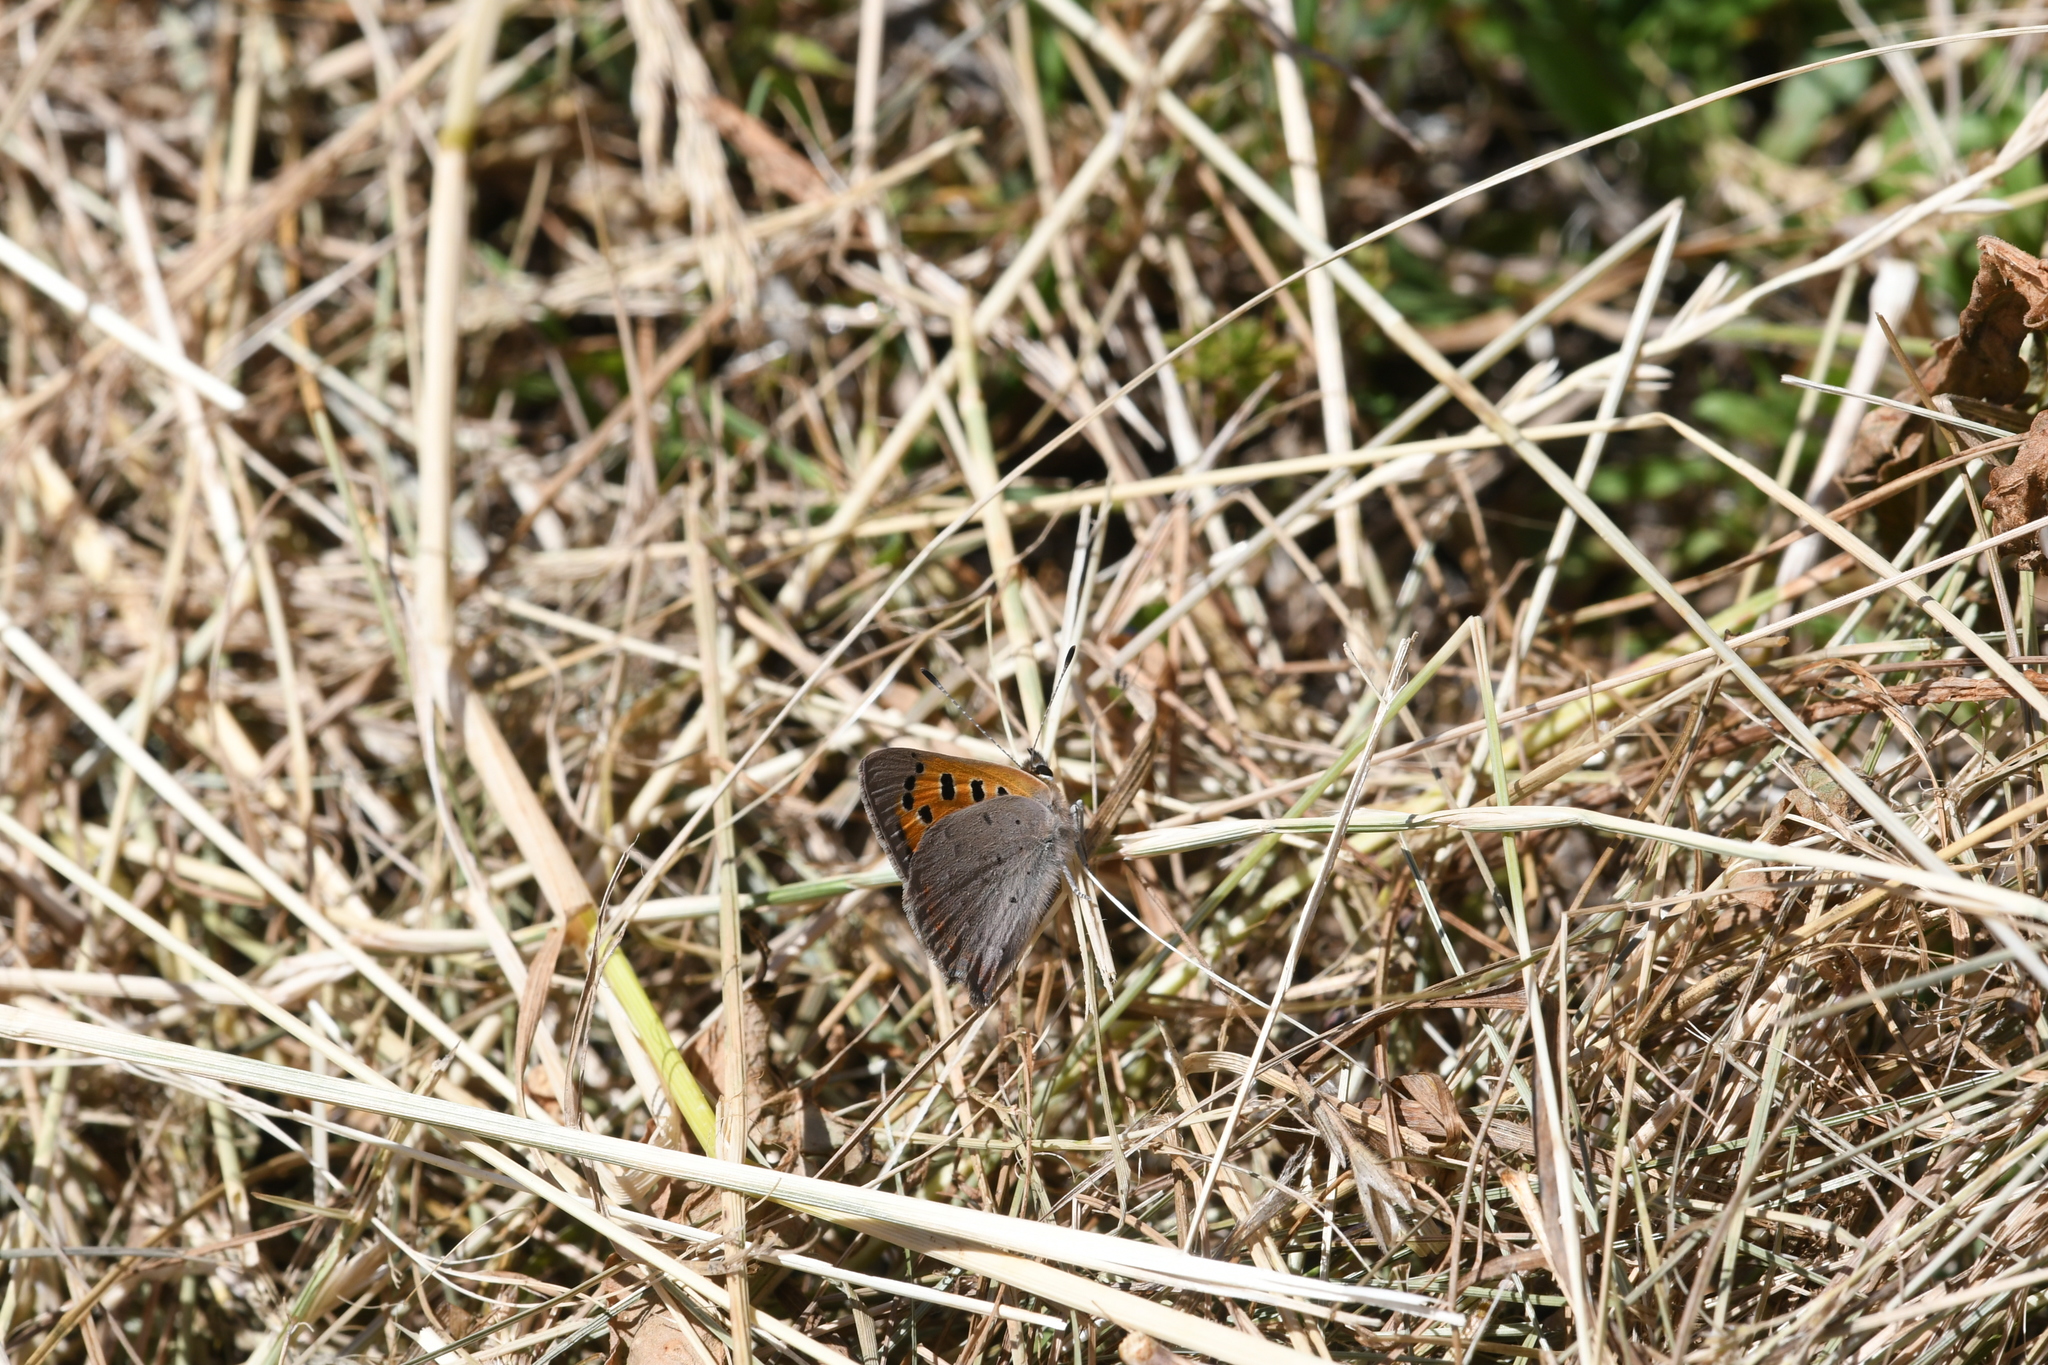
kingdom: Animalia
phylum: Arthropoda
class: Insecta
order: Lepidoptera
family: Lycaenidae
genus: Lycaena
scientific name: Lycaena phlaeas
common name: Small copper
